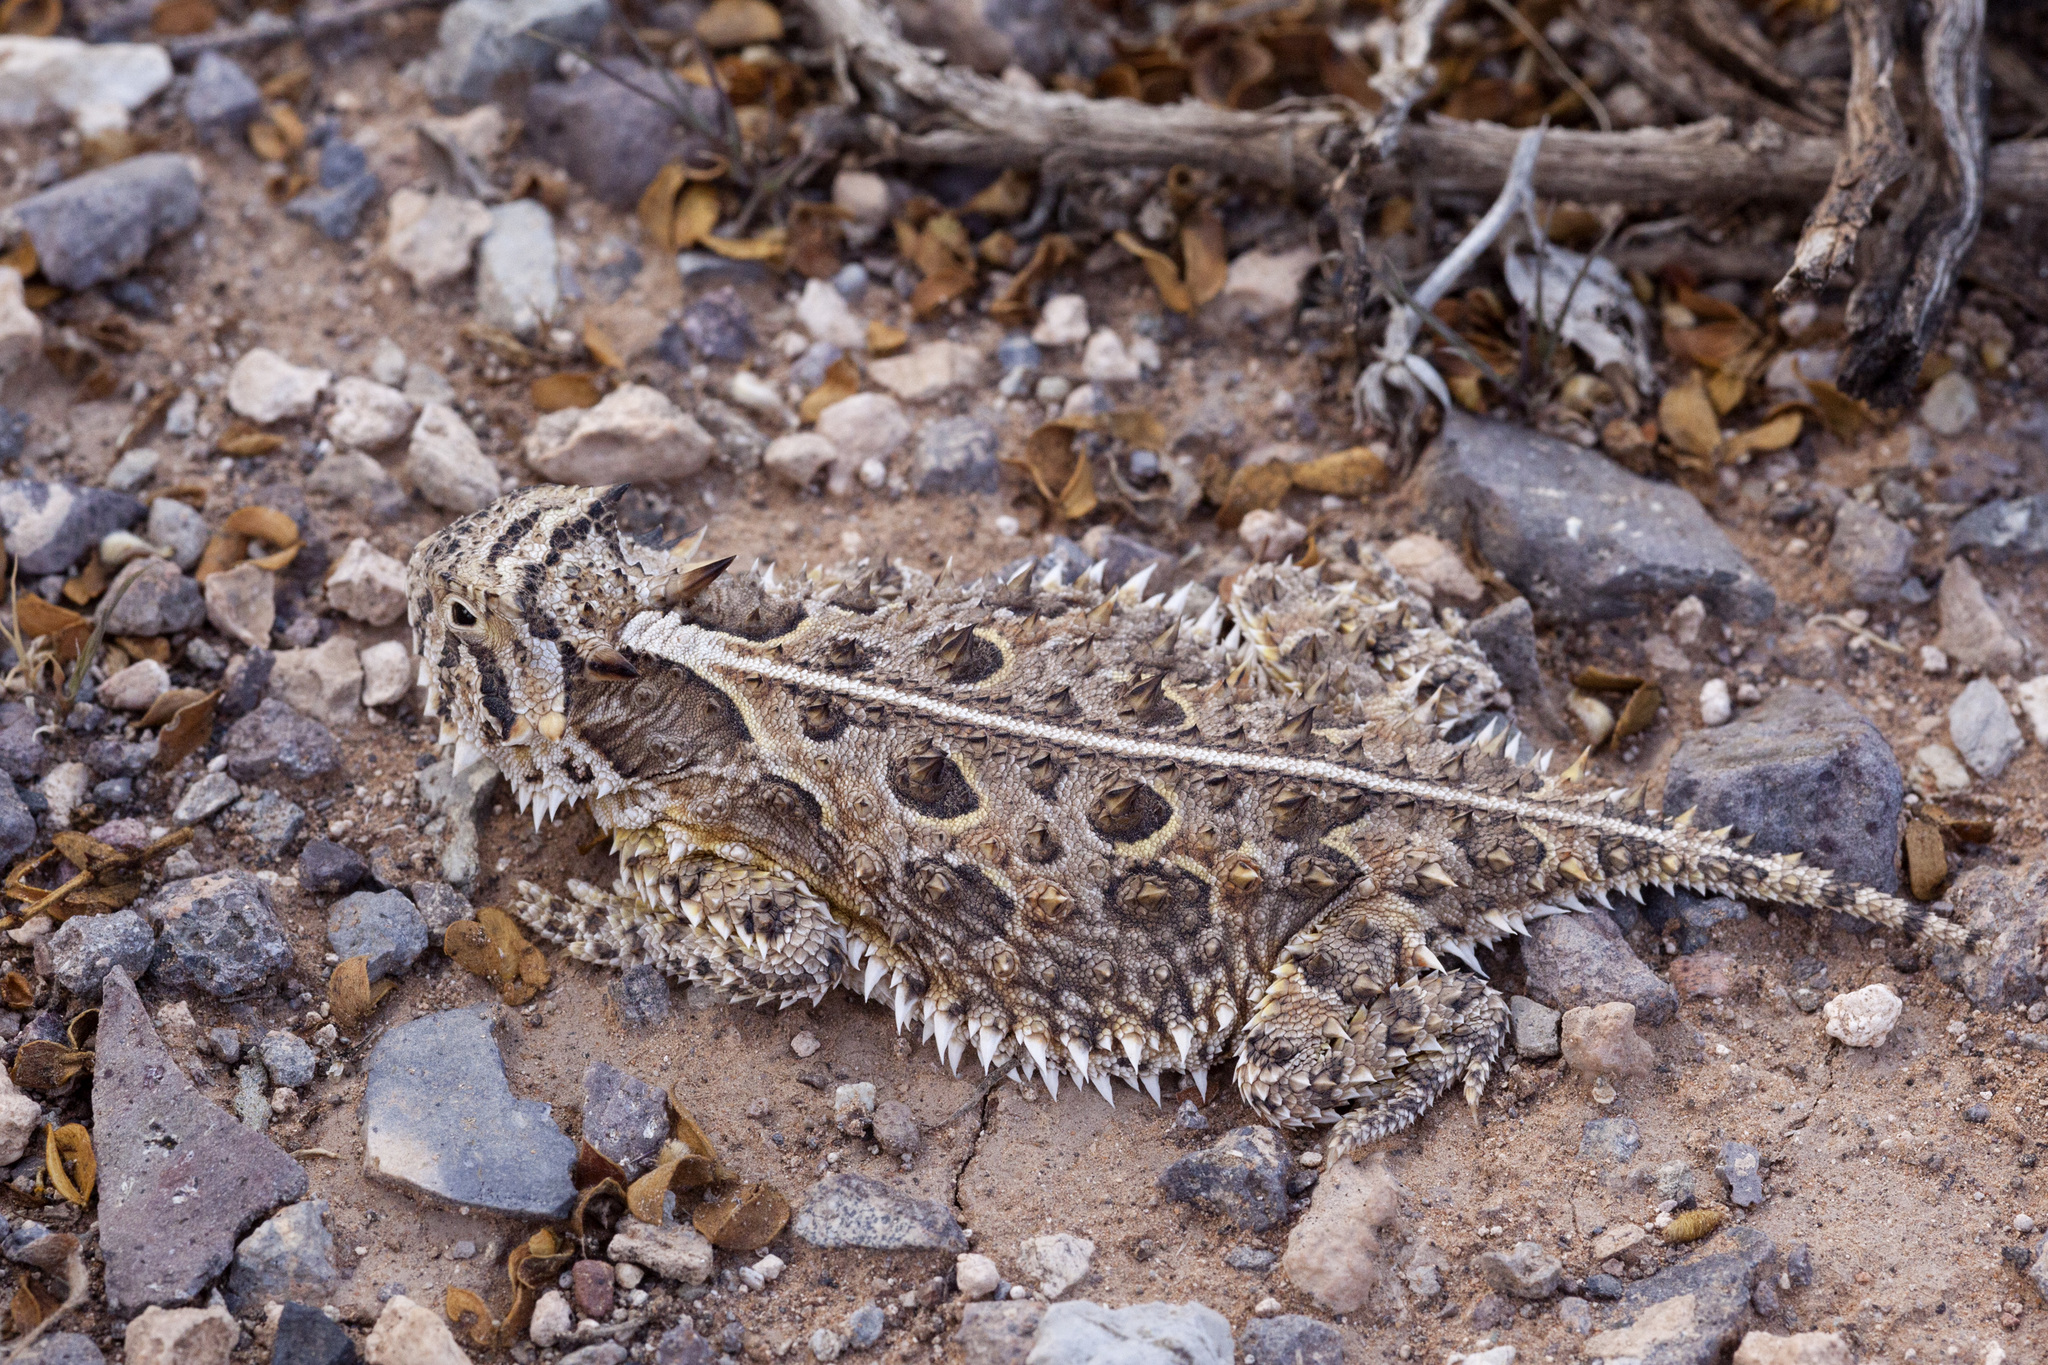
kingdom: Animalia
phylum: Chordata
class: Squamata
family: Phrynosomatidae
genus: Phrynosoma
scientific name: Phrynosoma cornutum
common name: Texas horned lizard
